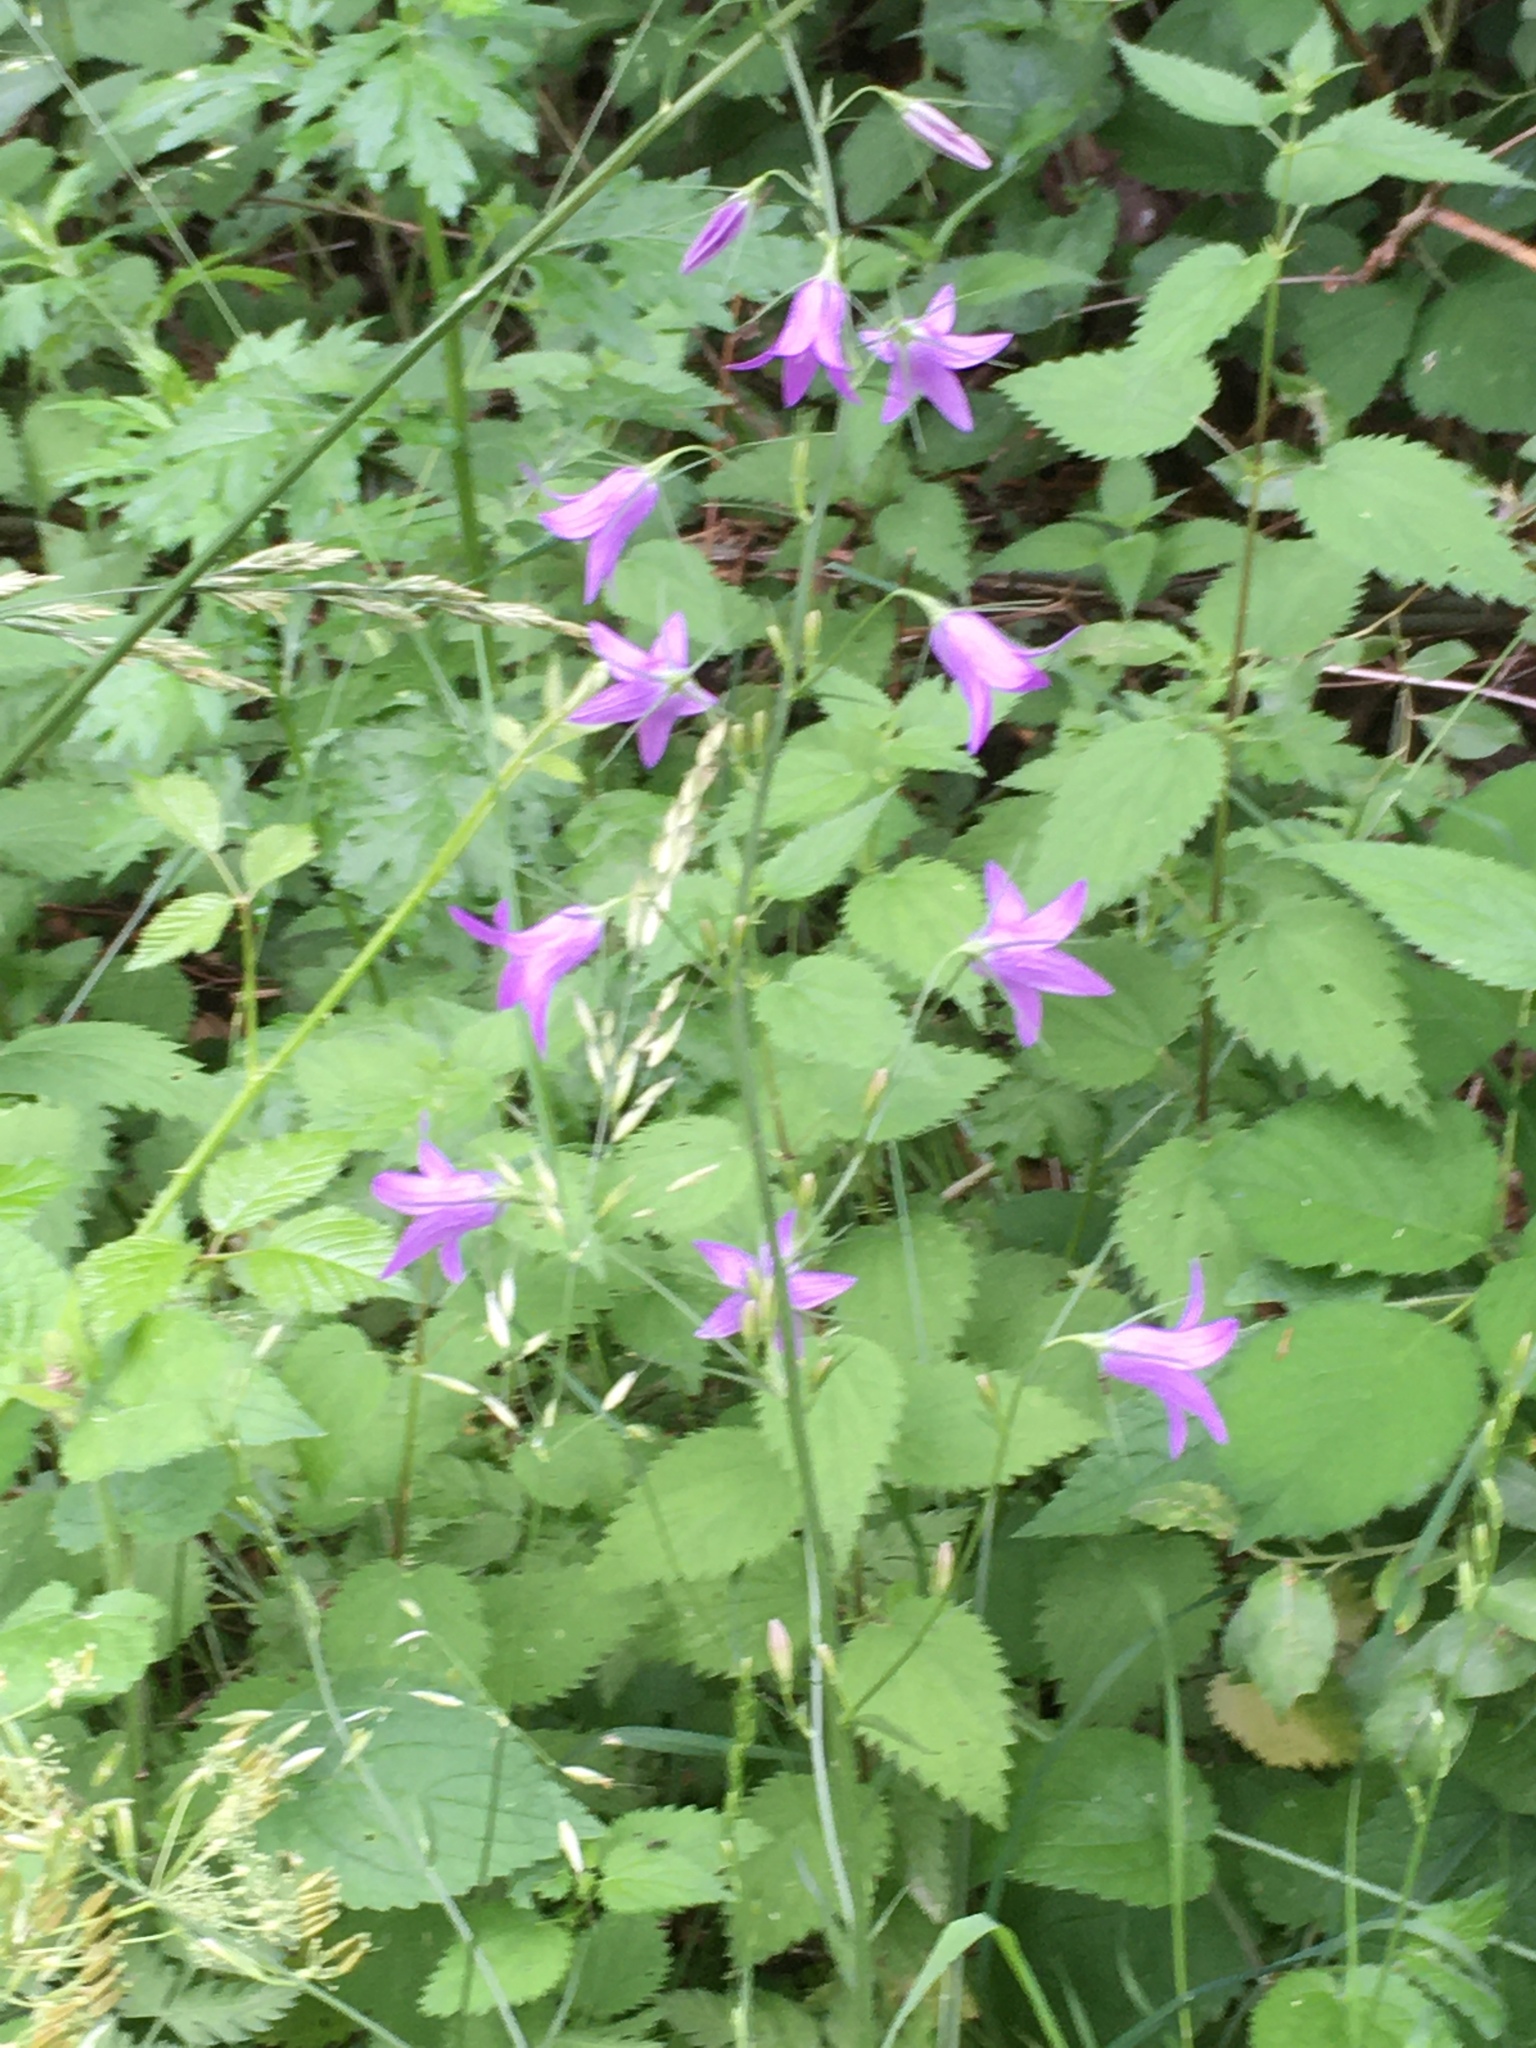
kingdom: Plantae
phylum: Tracheophyta
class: Magnoliopsida
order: Asterales
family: Campanulaceae
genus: Campanula
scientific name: Campanula rapunculus
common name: Rampion bellflower
